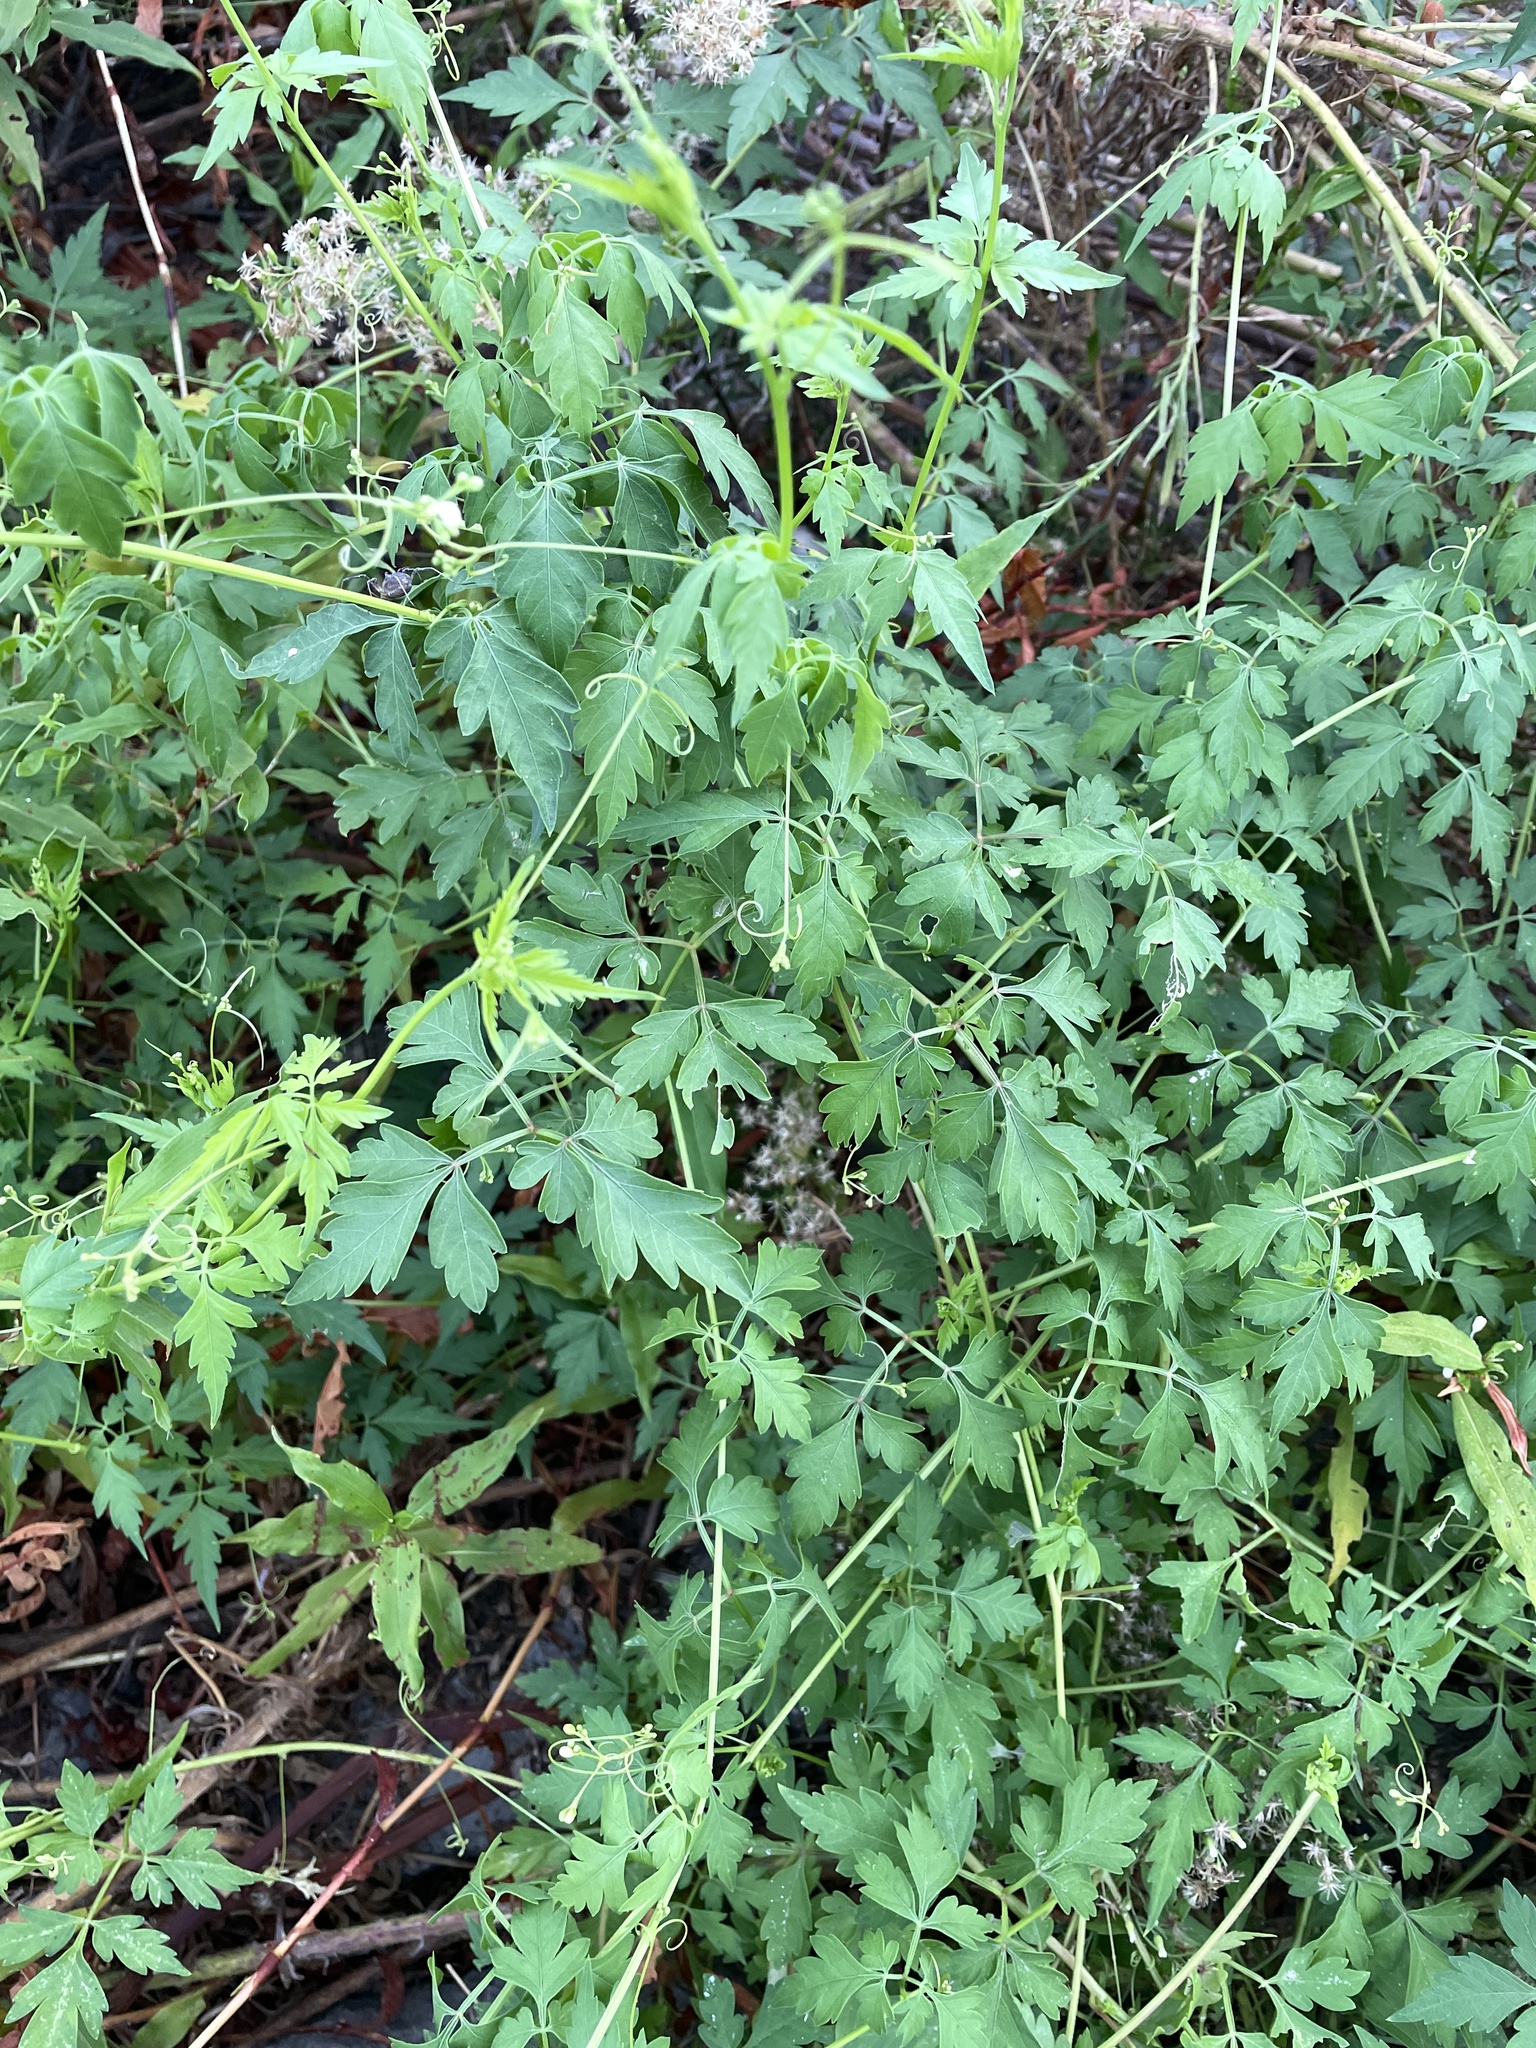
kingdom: Plantae
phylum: Tracheophyta
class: Magnoliopsida
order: Sapindales
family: Sapindaceae
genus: Cardiospermum
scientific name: Cardiospermum halicacabum
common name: Balloon vine
